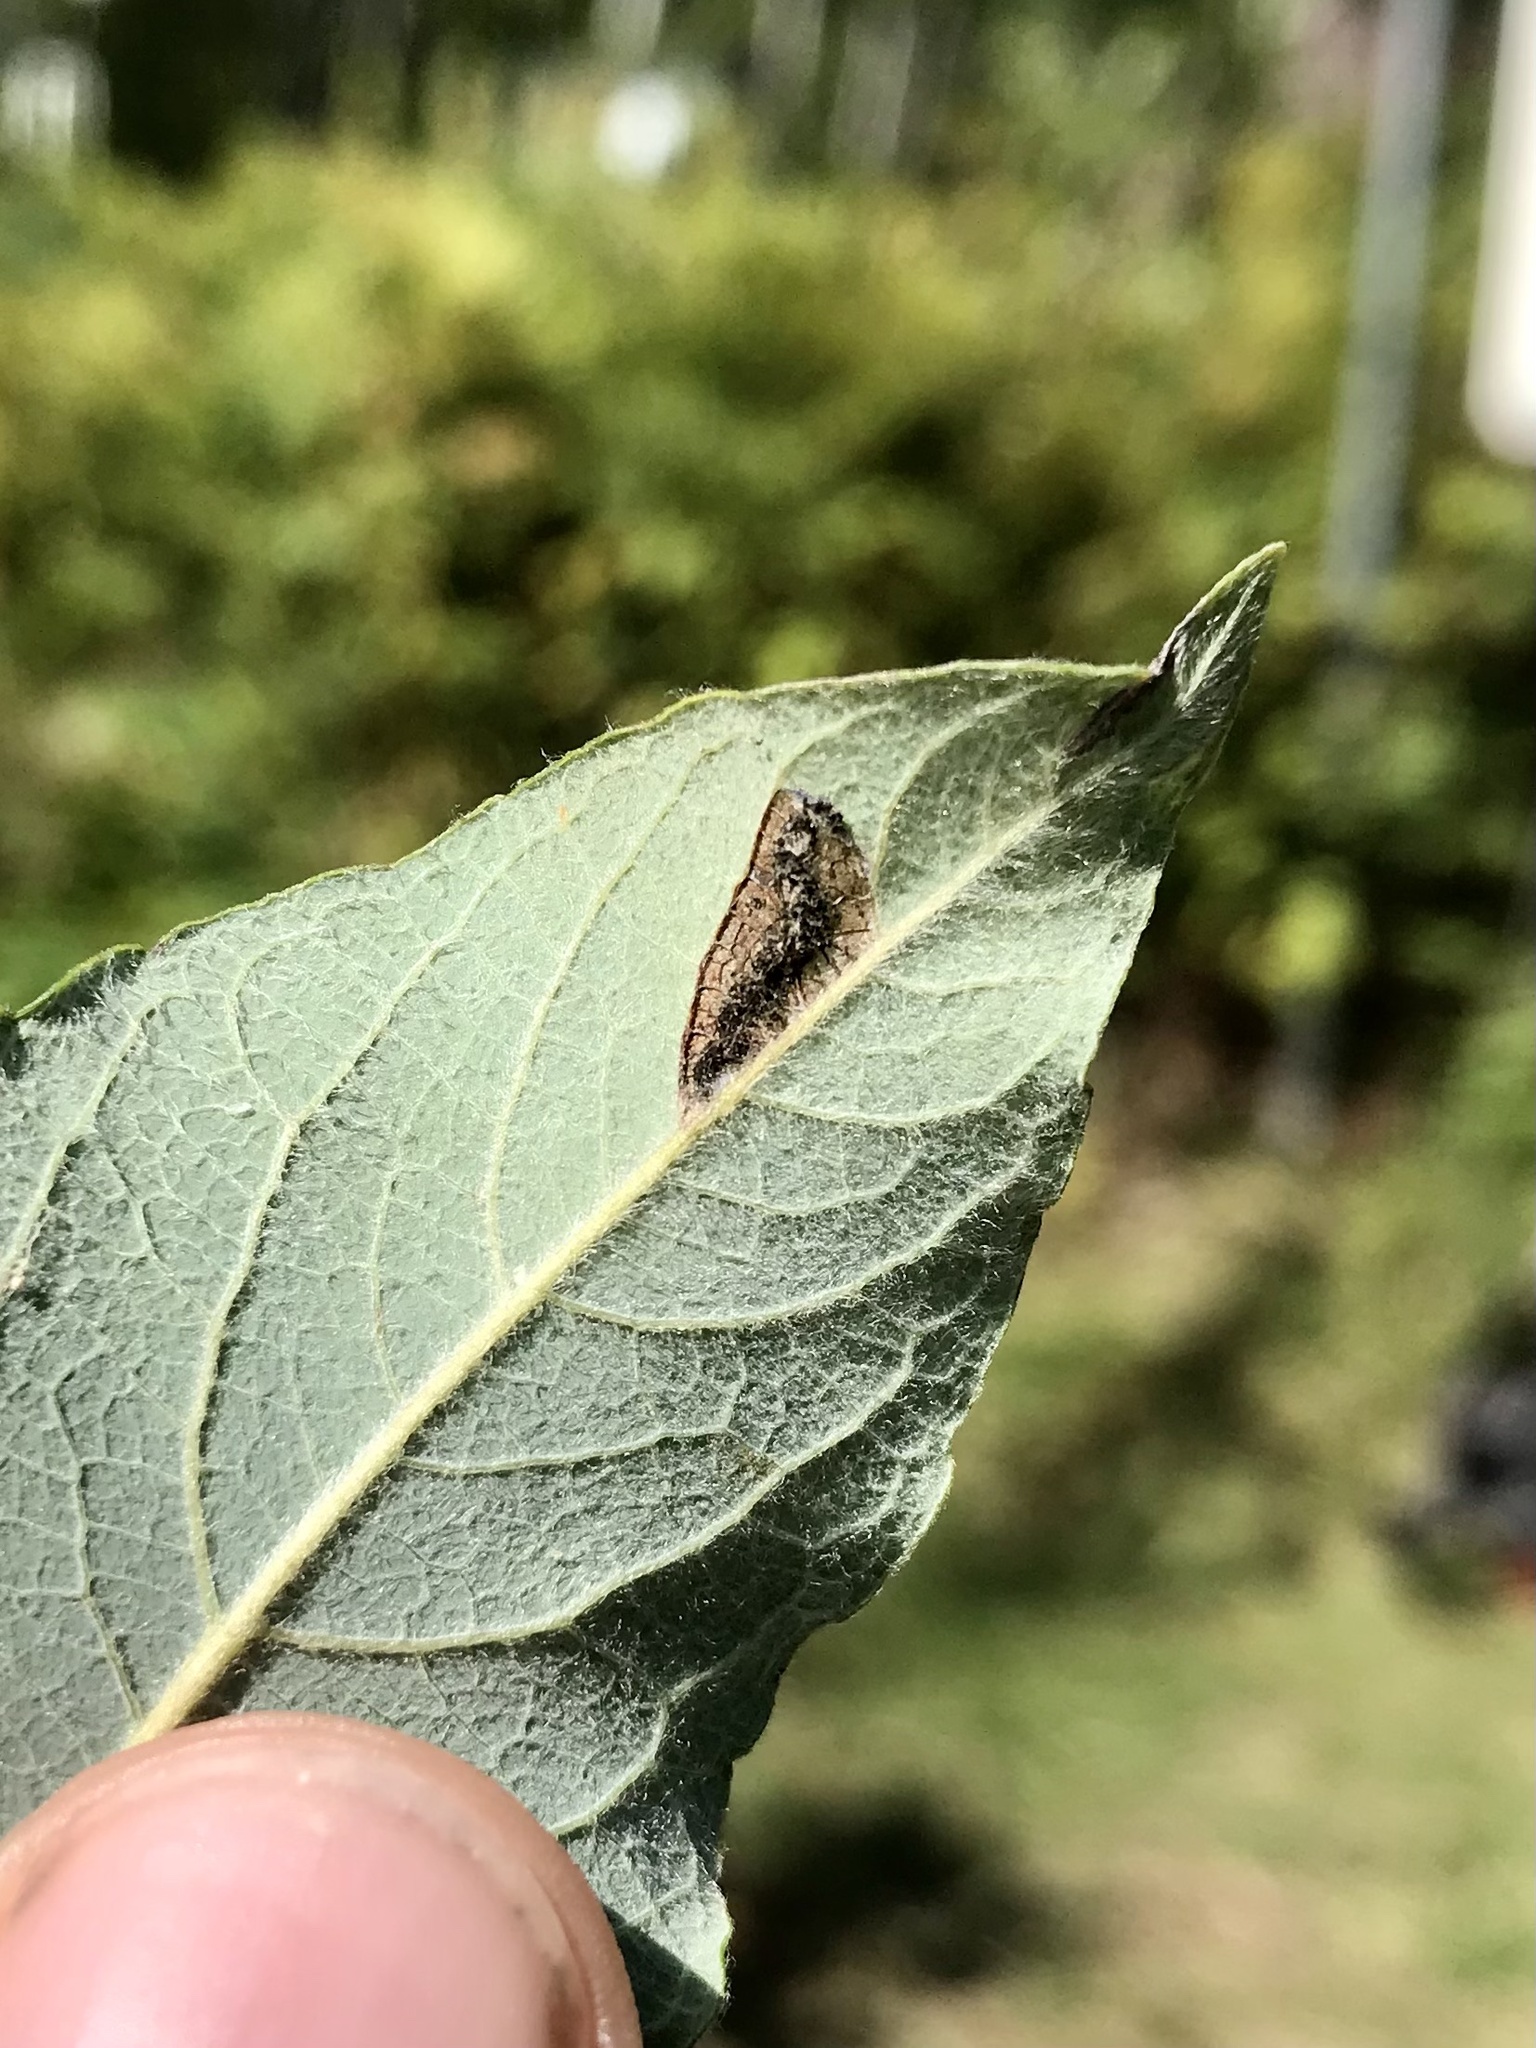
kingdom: Animalia
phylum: Arthropoda
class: Insecta
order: Lepidoptera
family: Crambidae
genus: Anania
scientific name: Anania Framinghamia helvalis
